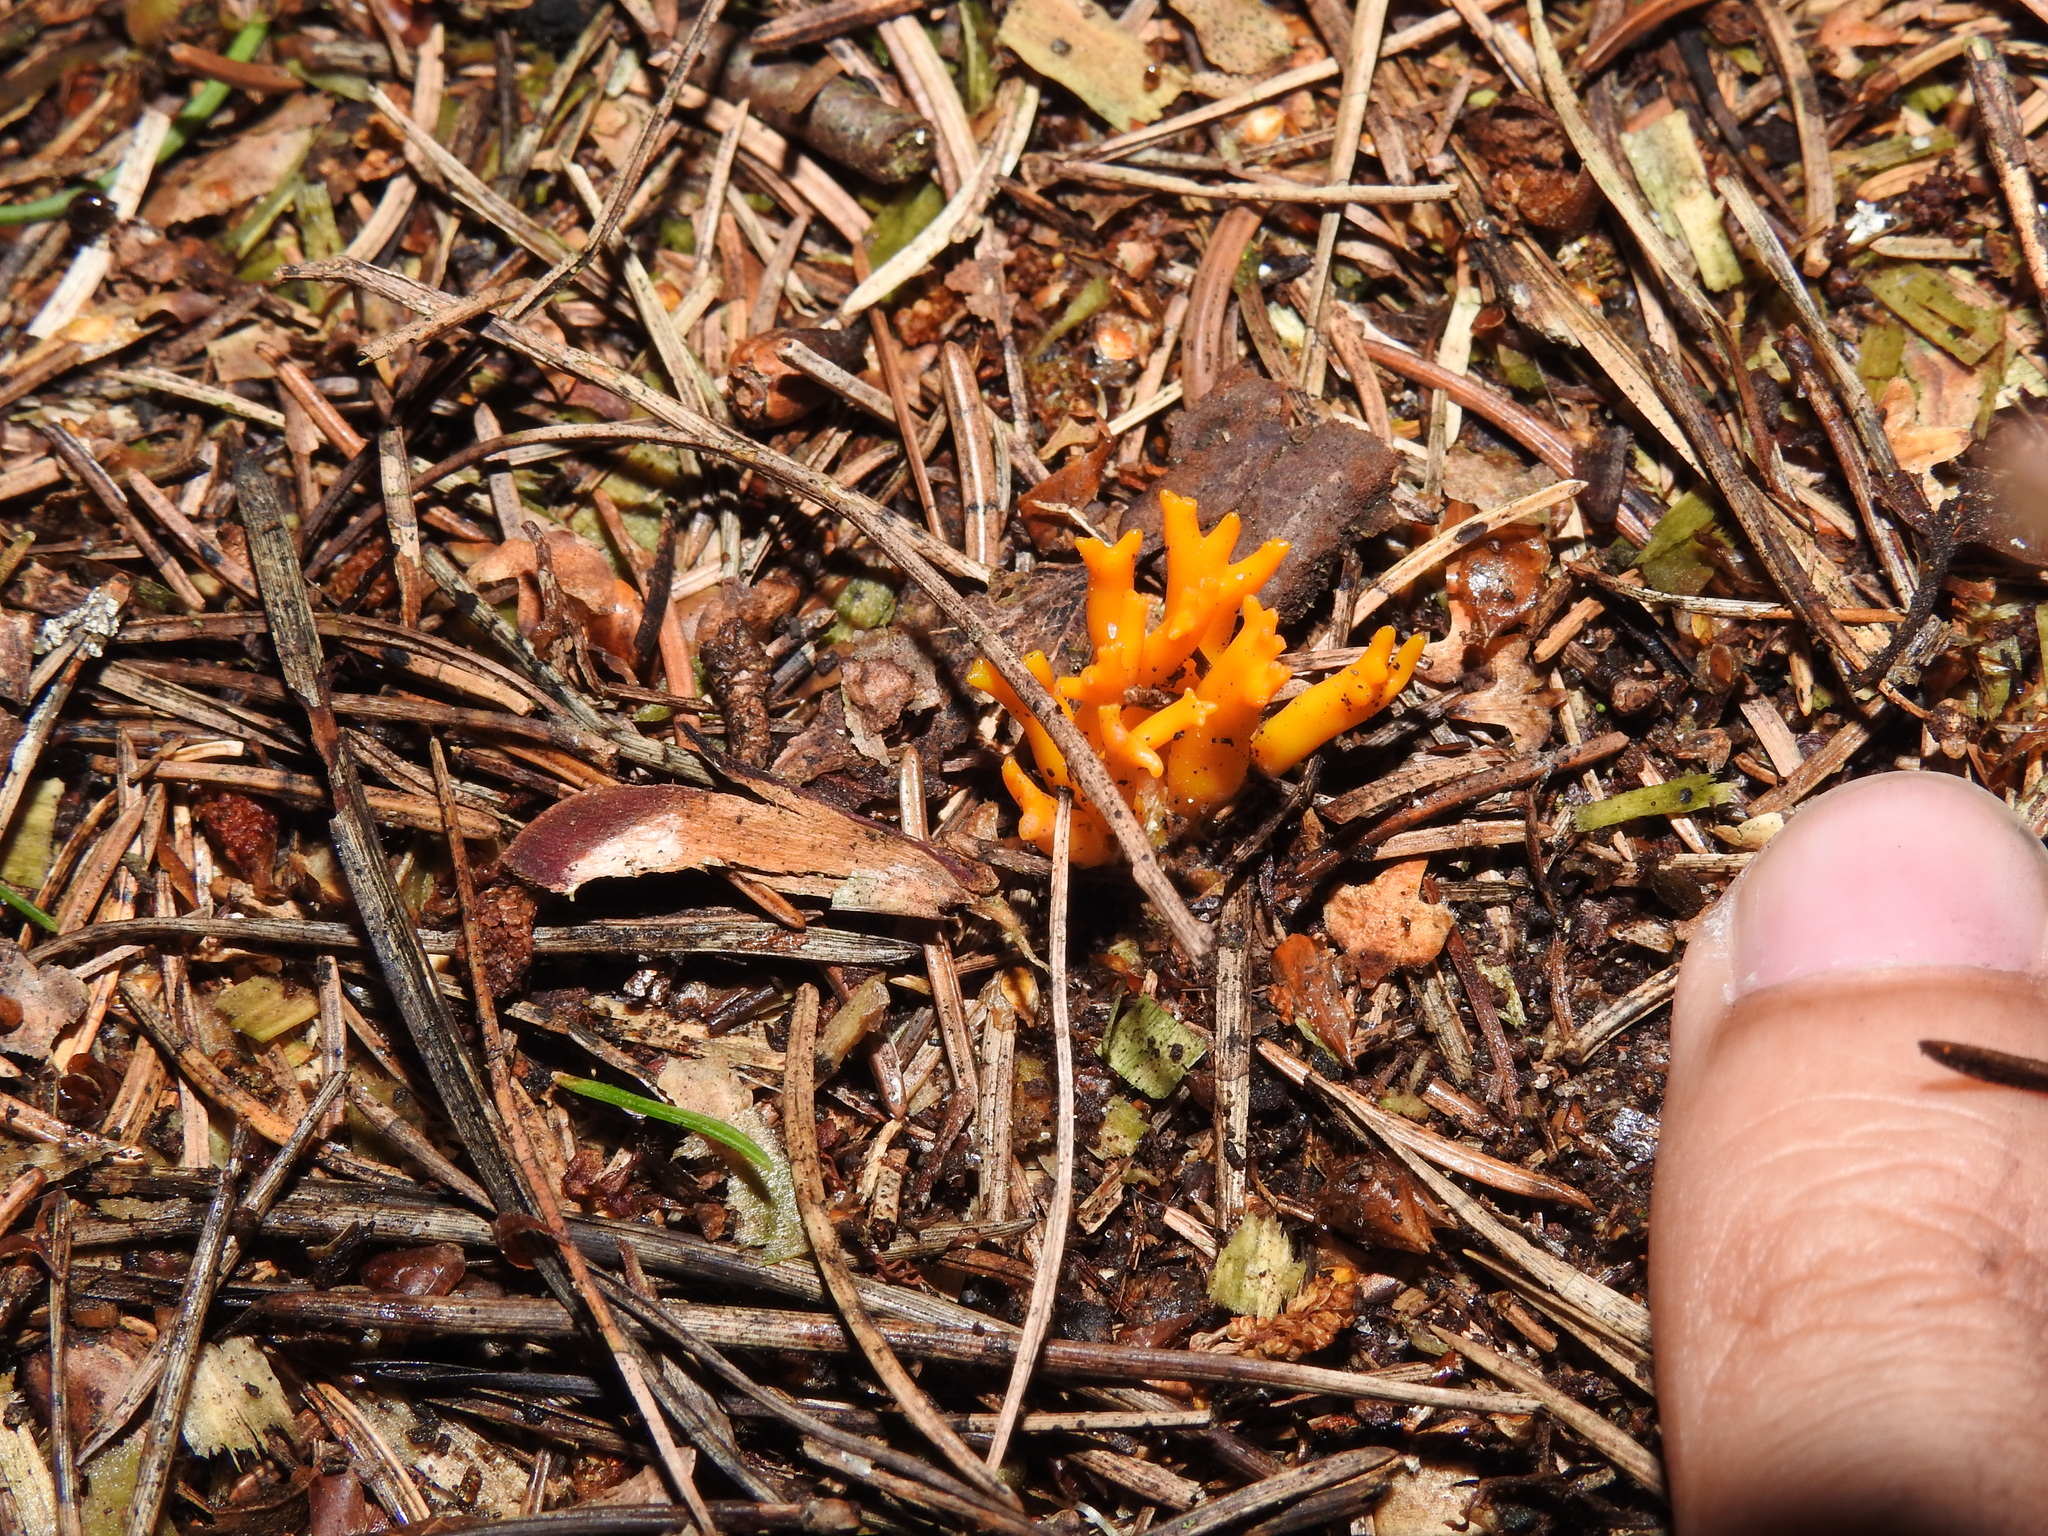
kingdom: Fungi
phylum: Basidiomycota
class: Dacrymycetes
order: Dacrymycetales
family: Dacrymycetaceae
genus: Calocera
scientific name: Calocera viscosa
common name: Yellow stagshorn
